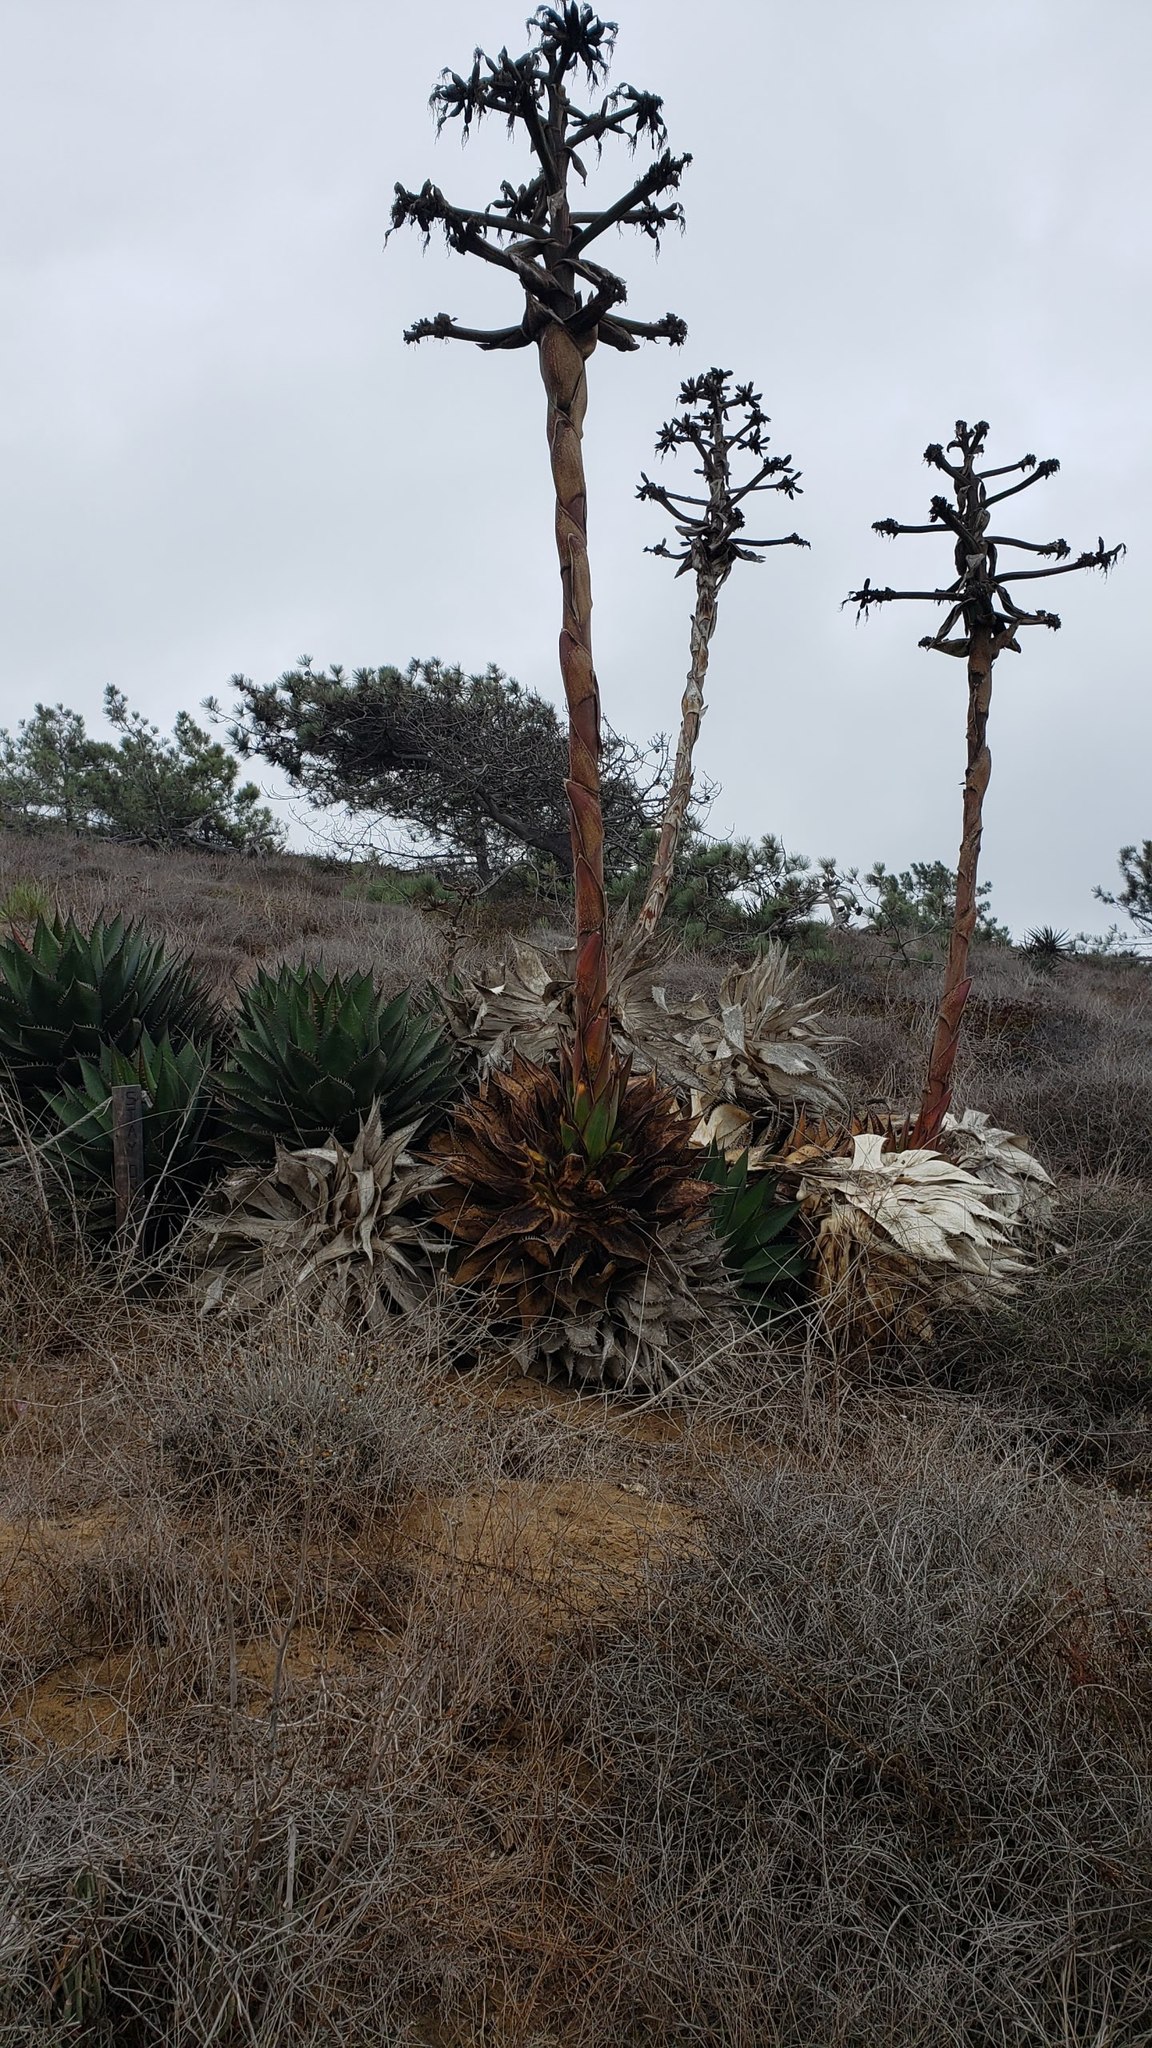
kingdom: Plantae
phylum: Tracheophyta
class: Liliopsida
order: Asparagales
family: Asparagaceae
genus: Agave
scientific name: Agave shawii
